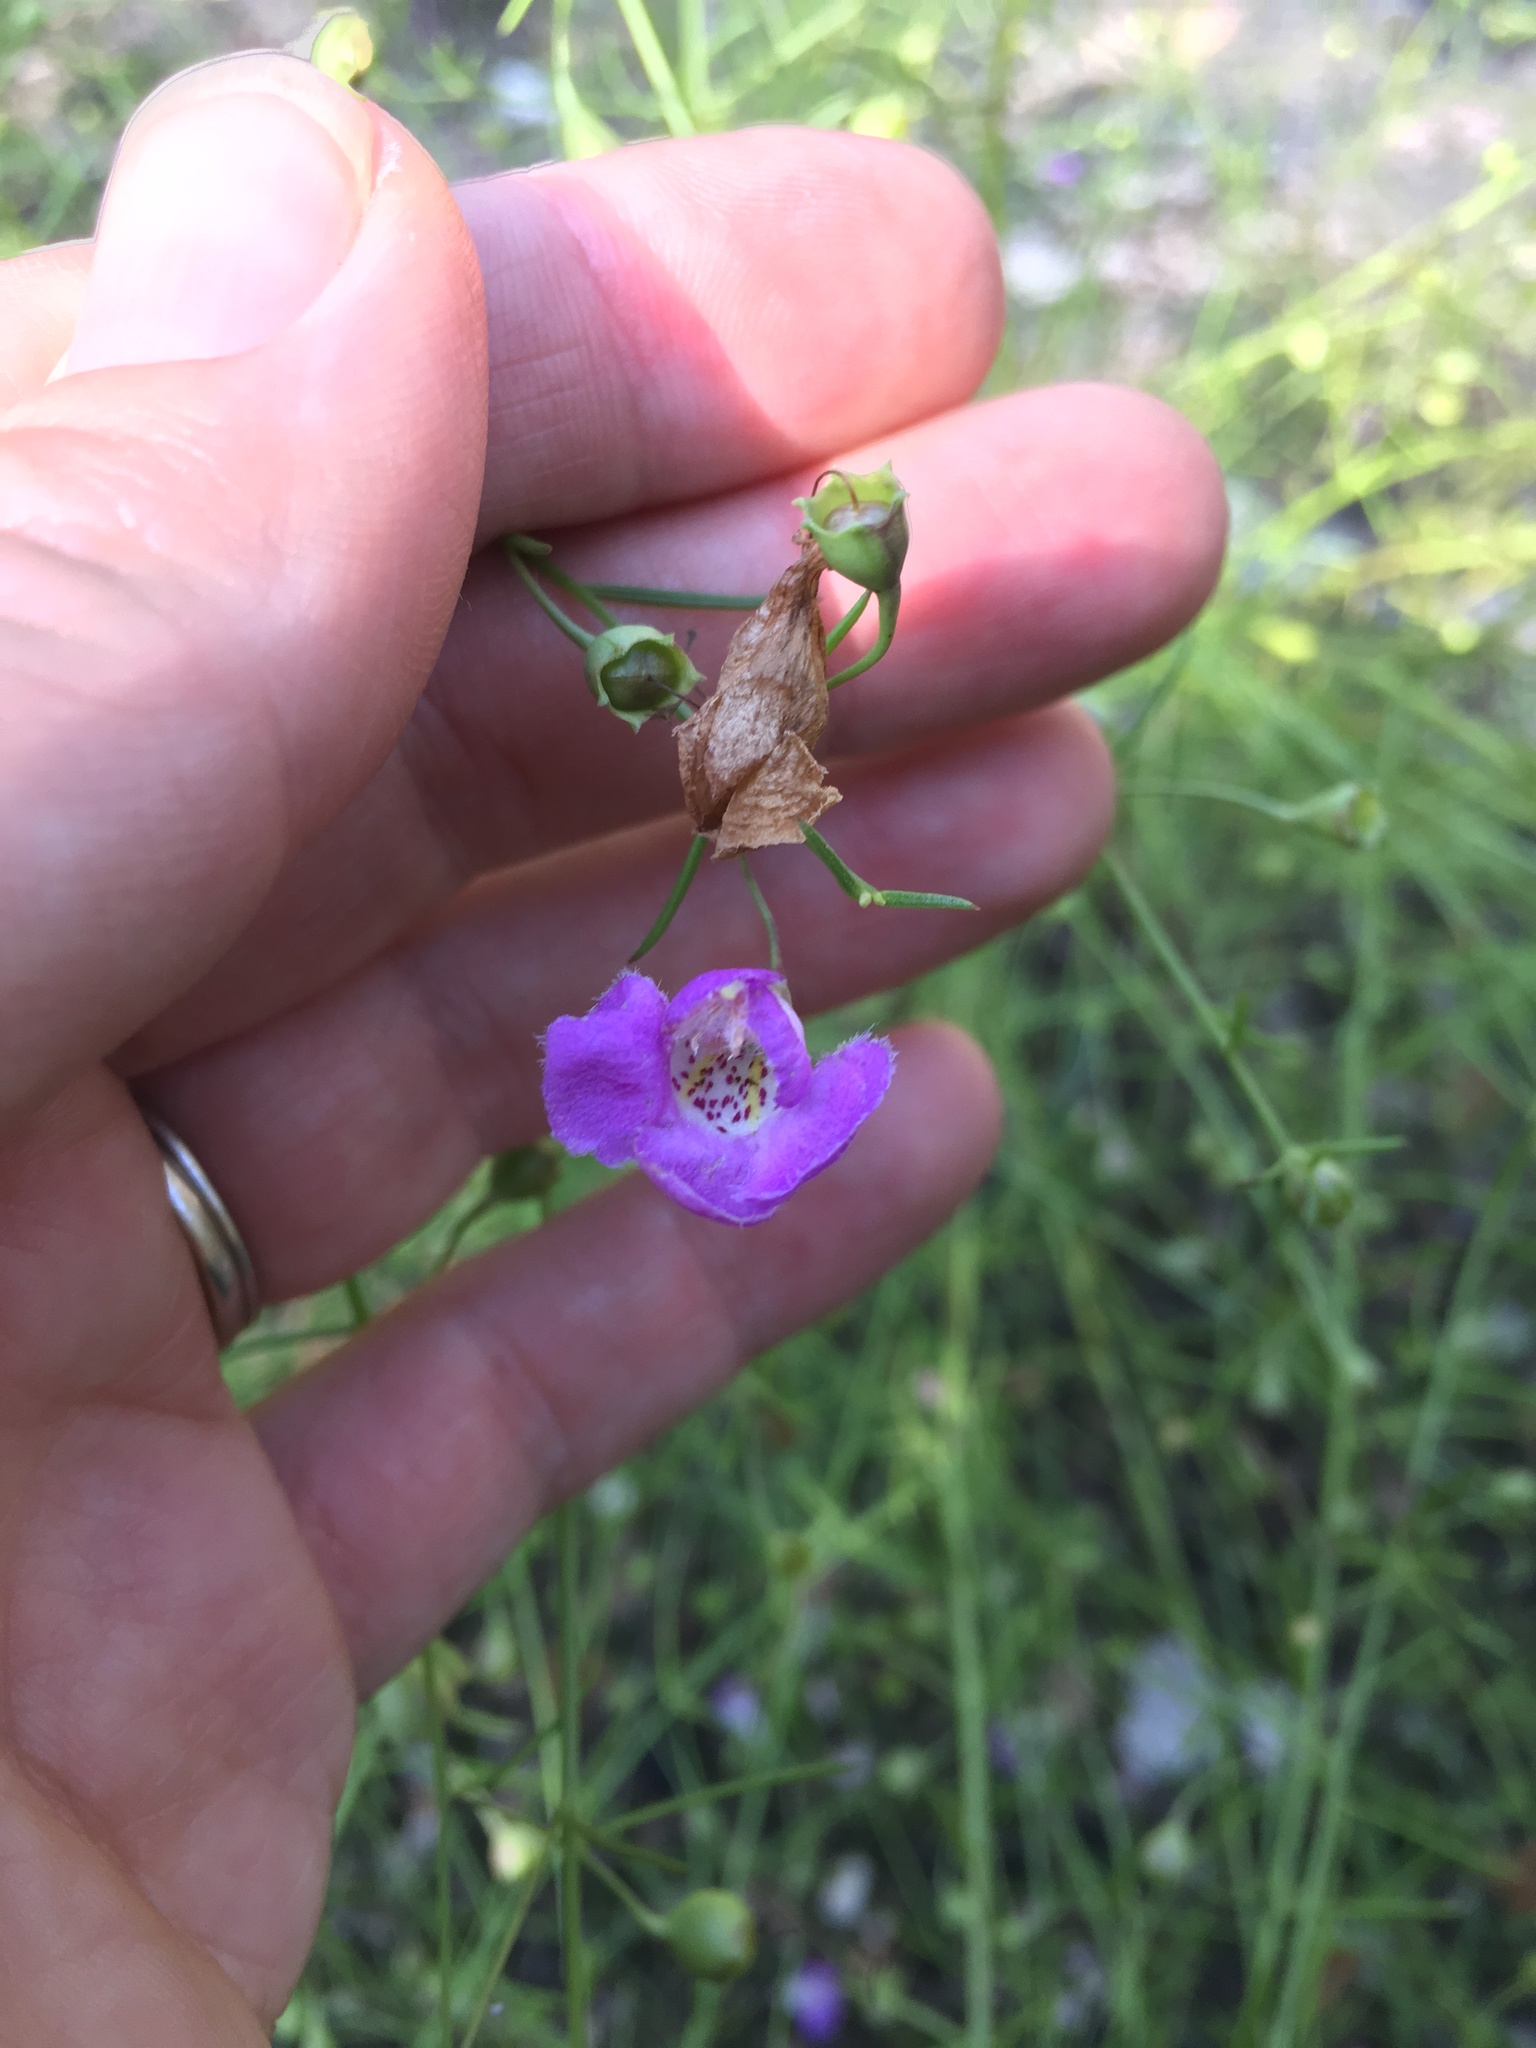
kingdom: Plantae
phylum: Tracheophyta
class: Magnoliopsida
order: Lamiales
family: Orobanchaceae
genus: Agalinis
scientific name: Agalinis edwardsiana
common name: Plateau-gerardia
